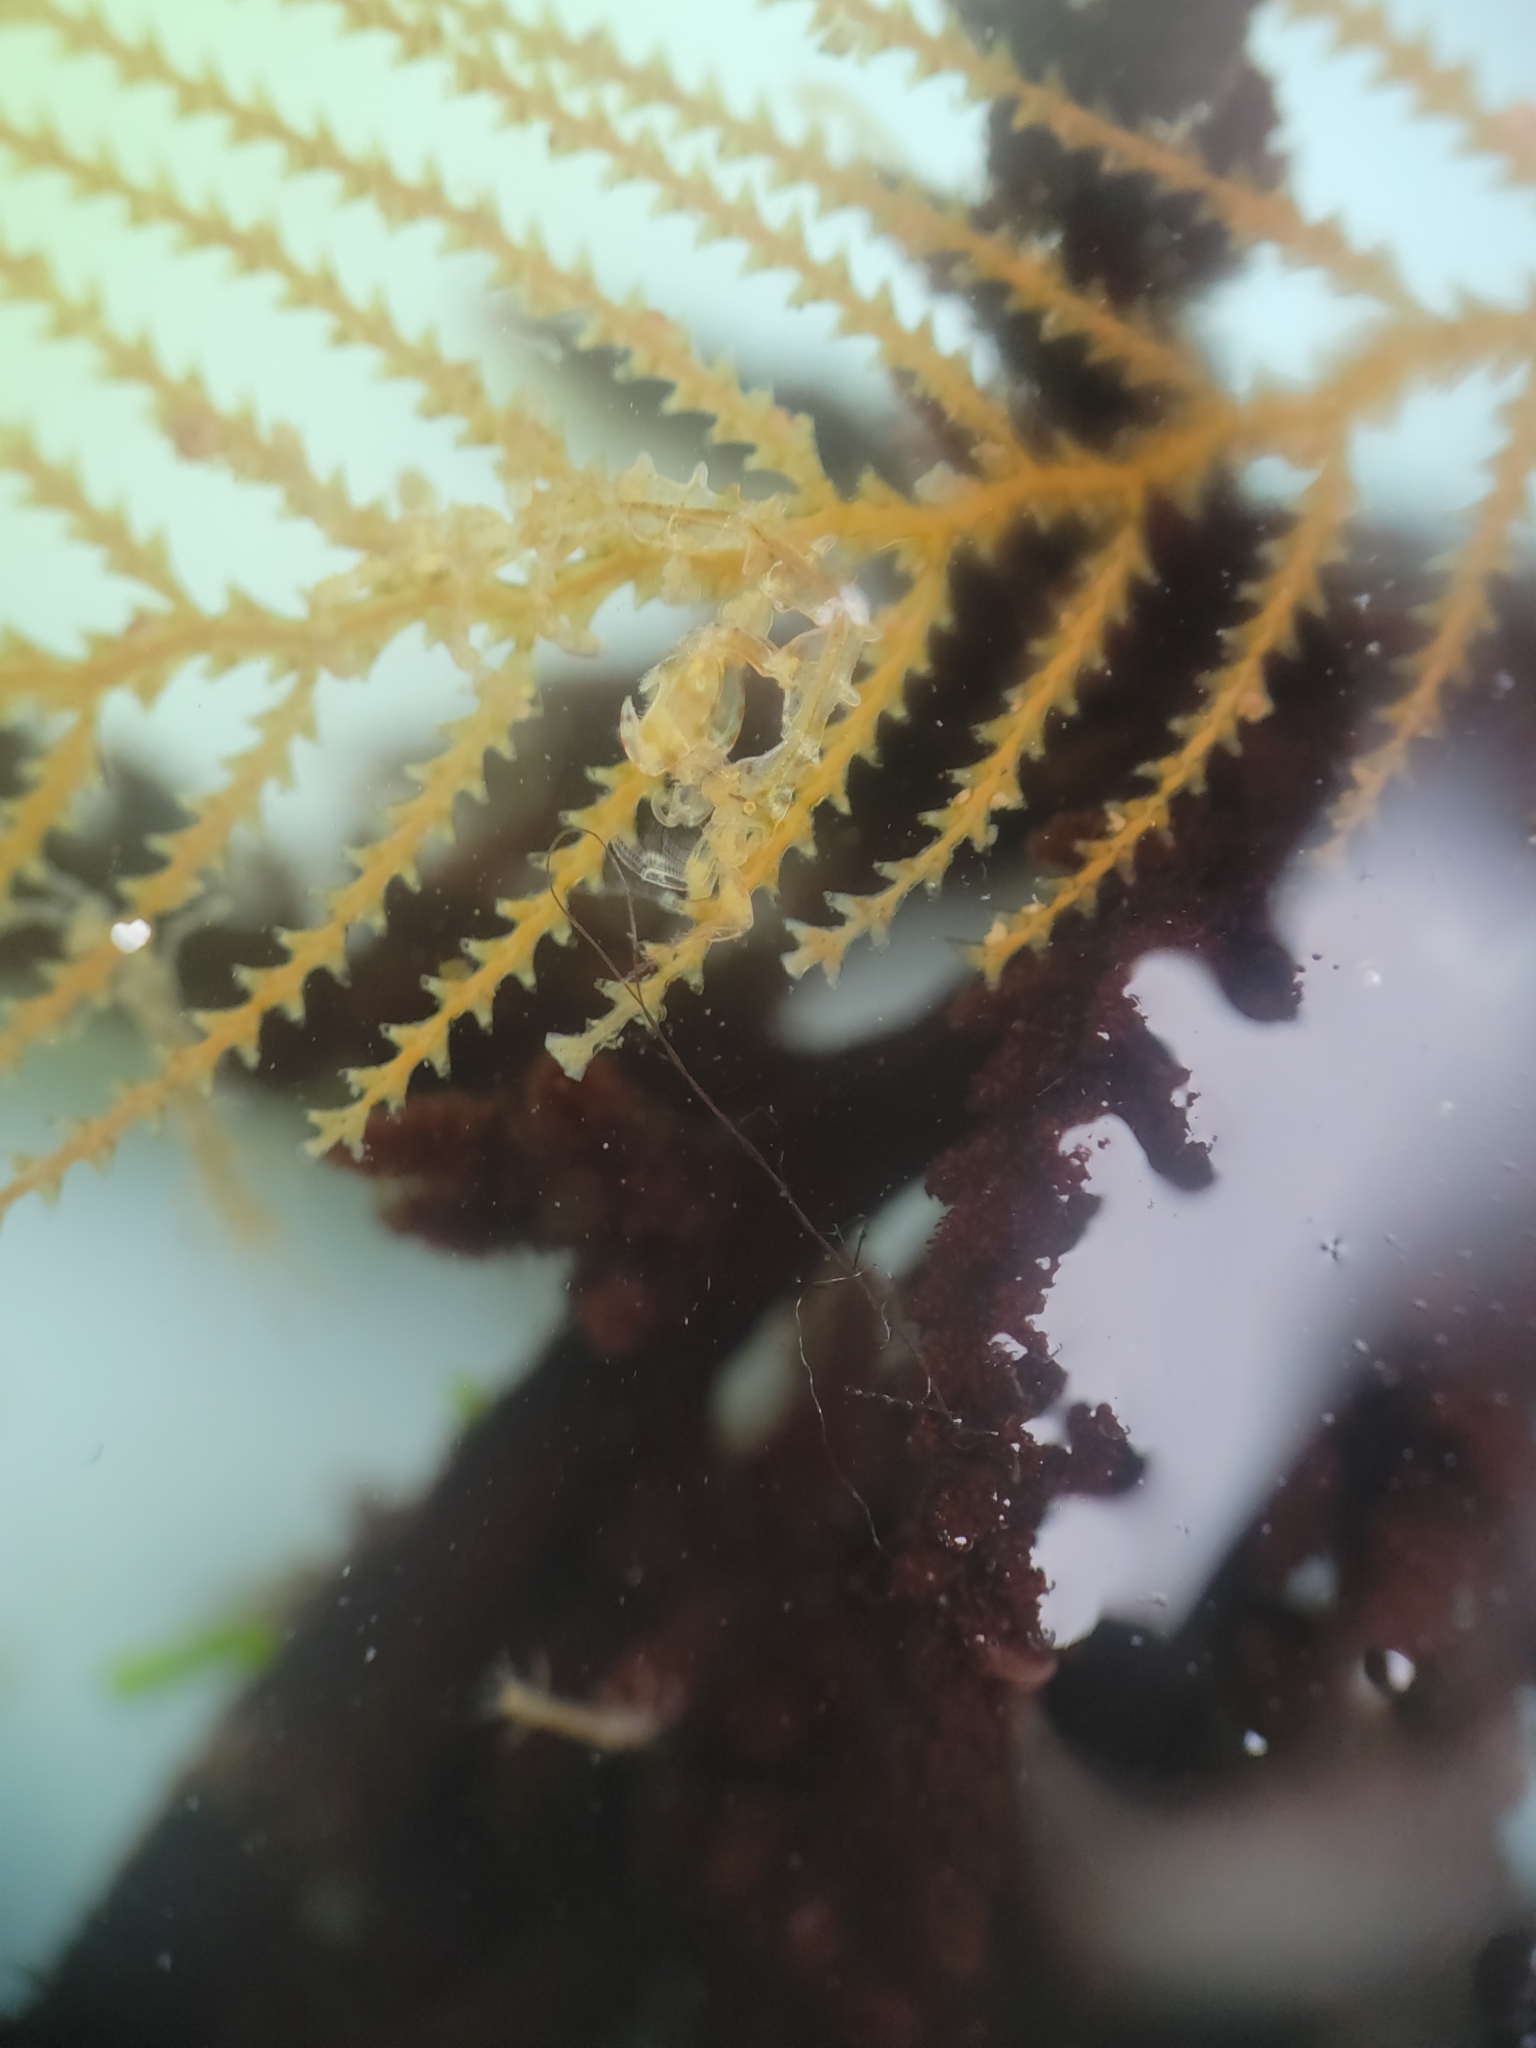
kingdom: Animalia
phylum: Arthropoda
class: Malacostraca
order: Amphipoda
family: Caprellidae
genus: Caprella
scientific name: Caprella verrucosa
